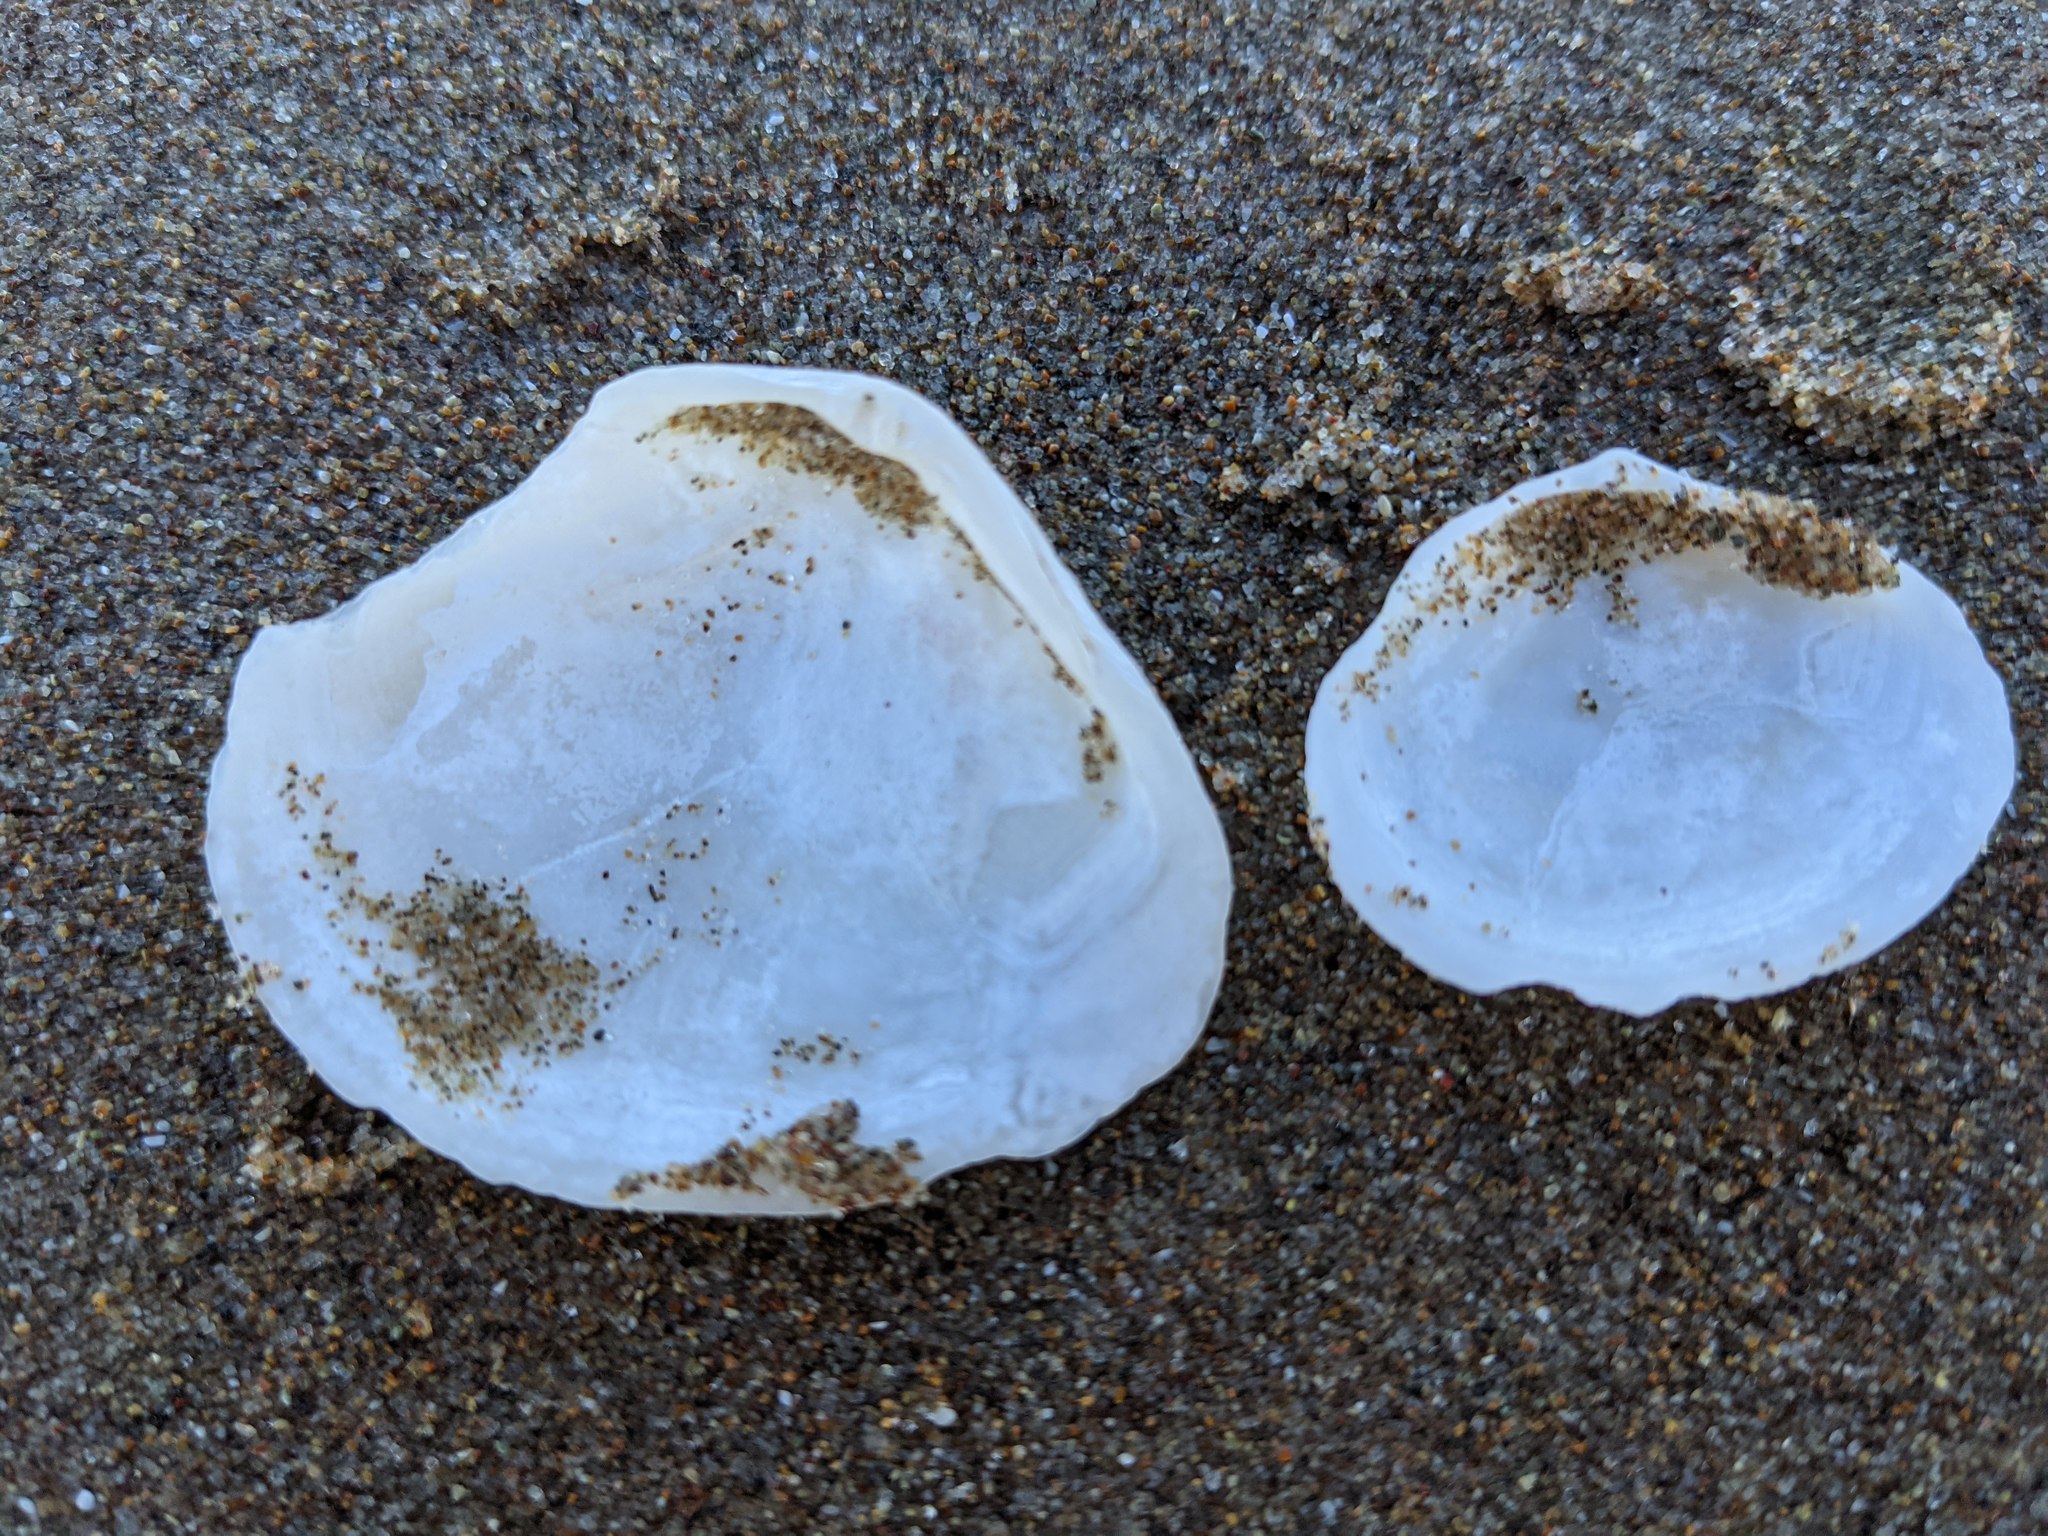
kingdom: Animalia
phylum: Mollusca
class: Bivalvia
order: Cardiida
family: Tellinidae
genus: Macoma
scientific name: Macoma nasuta
